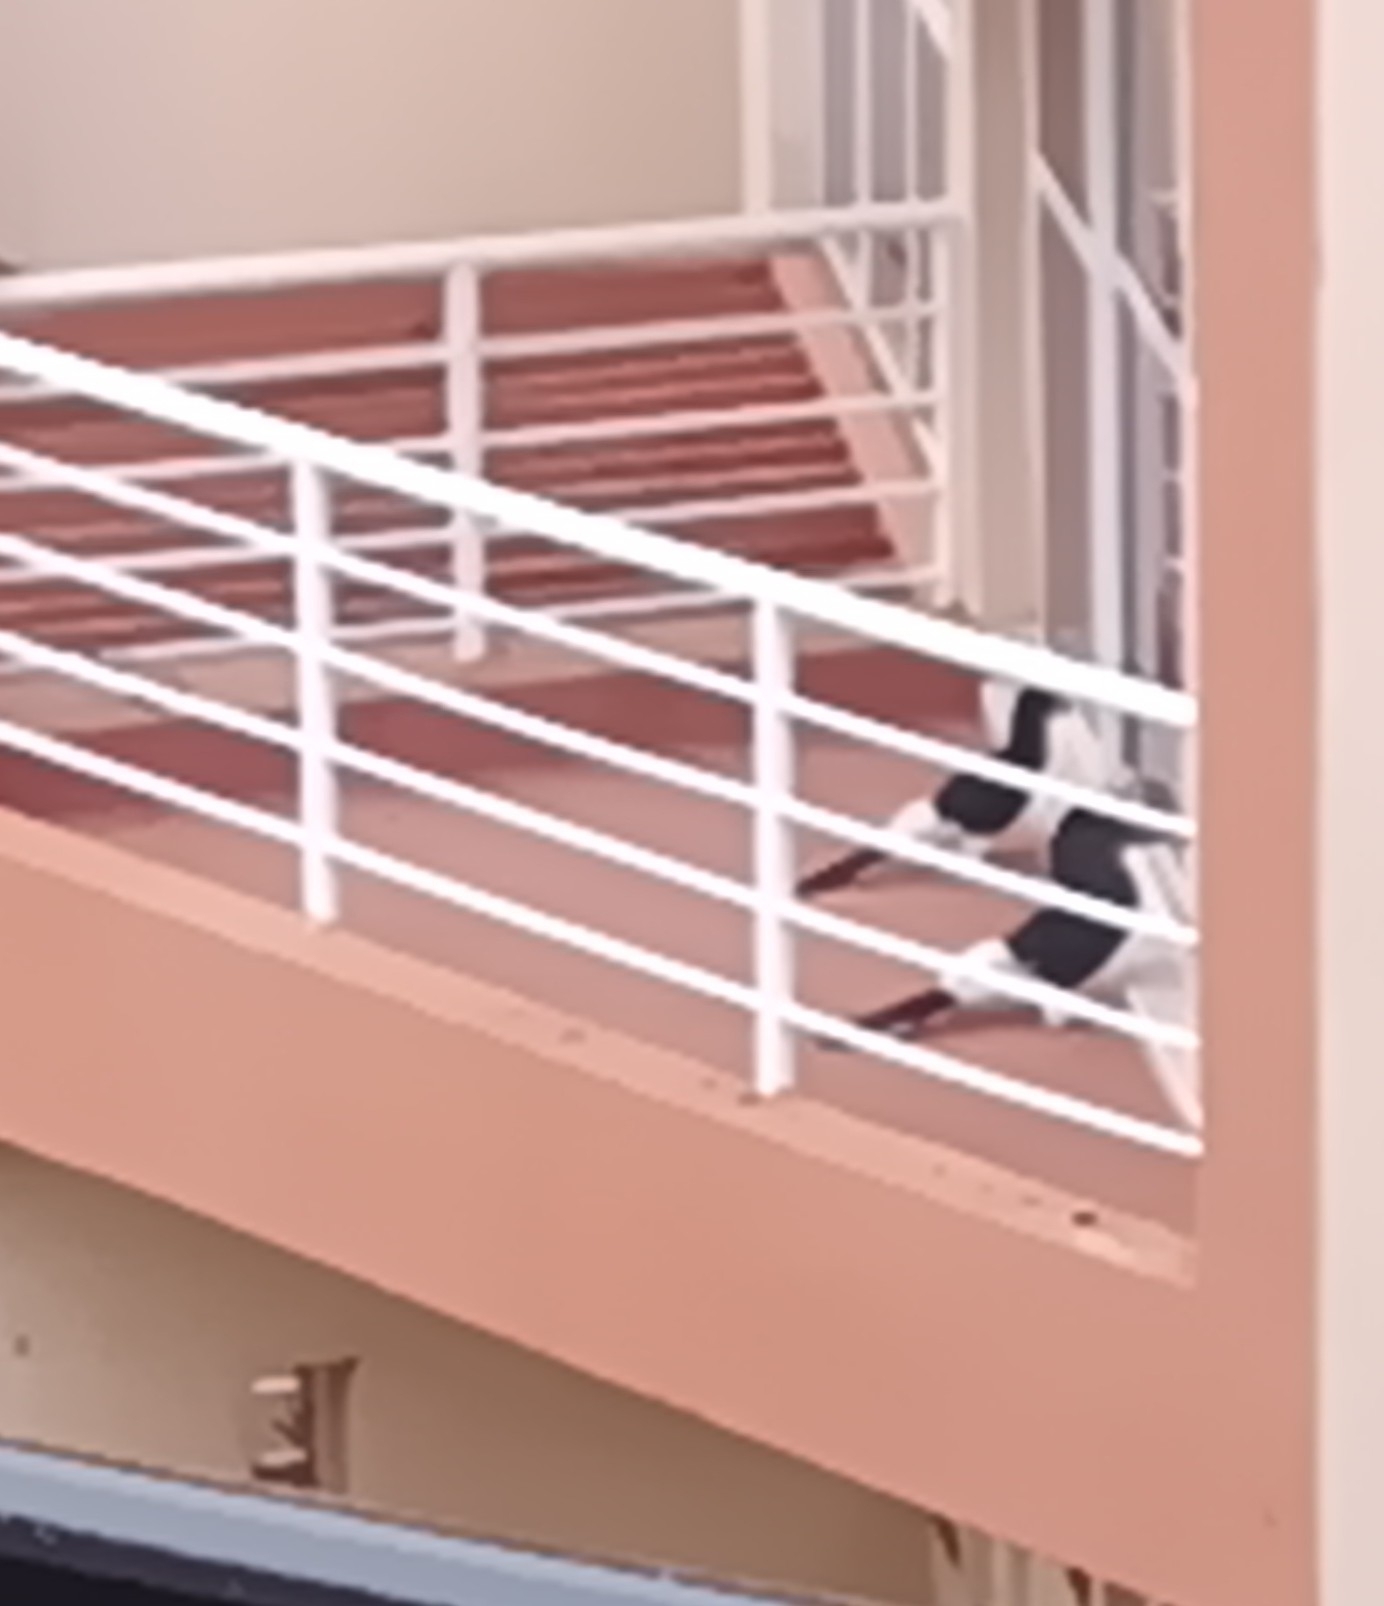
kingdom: Animalia
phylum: Chordata
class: Aves
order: Bucerotiformes
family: Bucerotidae
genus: Bycanistes
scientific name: Bycanistes subcylindricus
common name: Black-and-white-casqued hornbill
